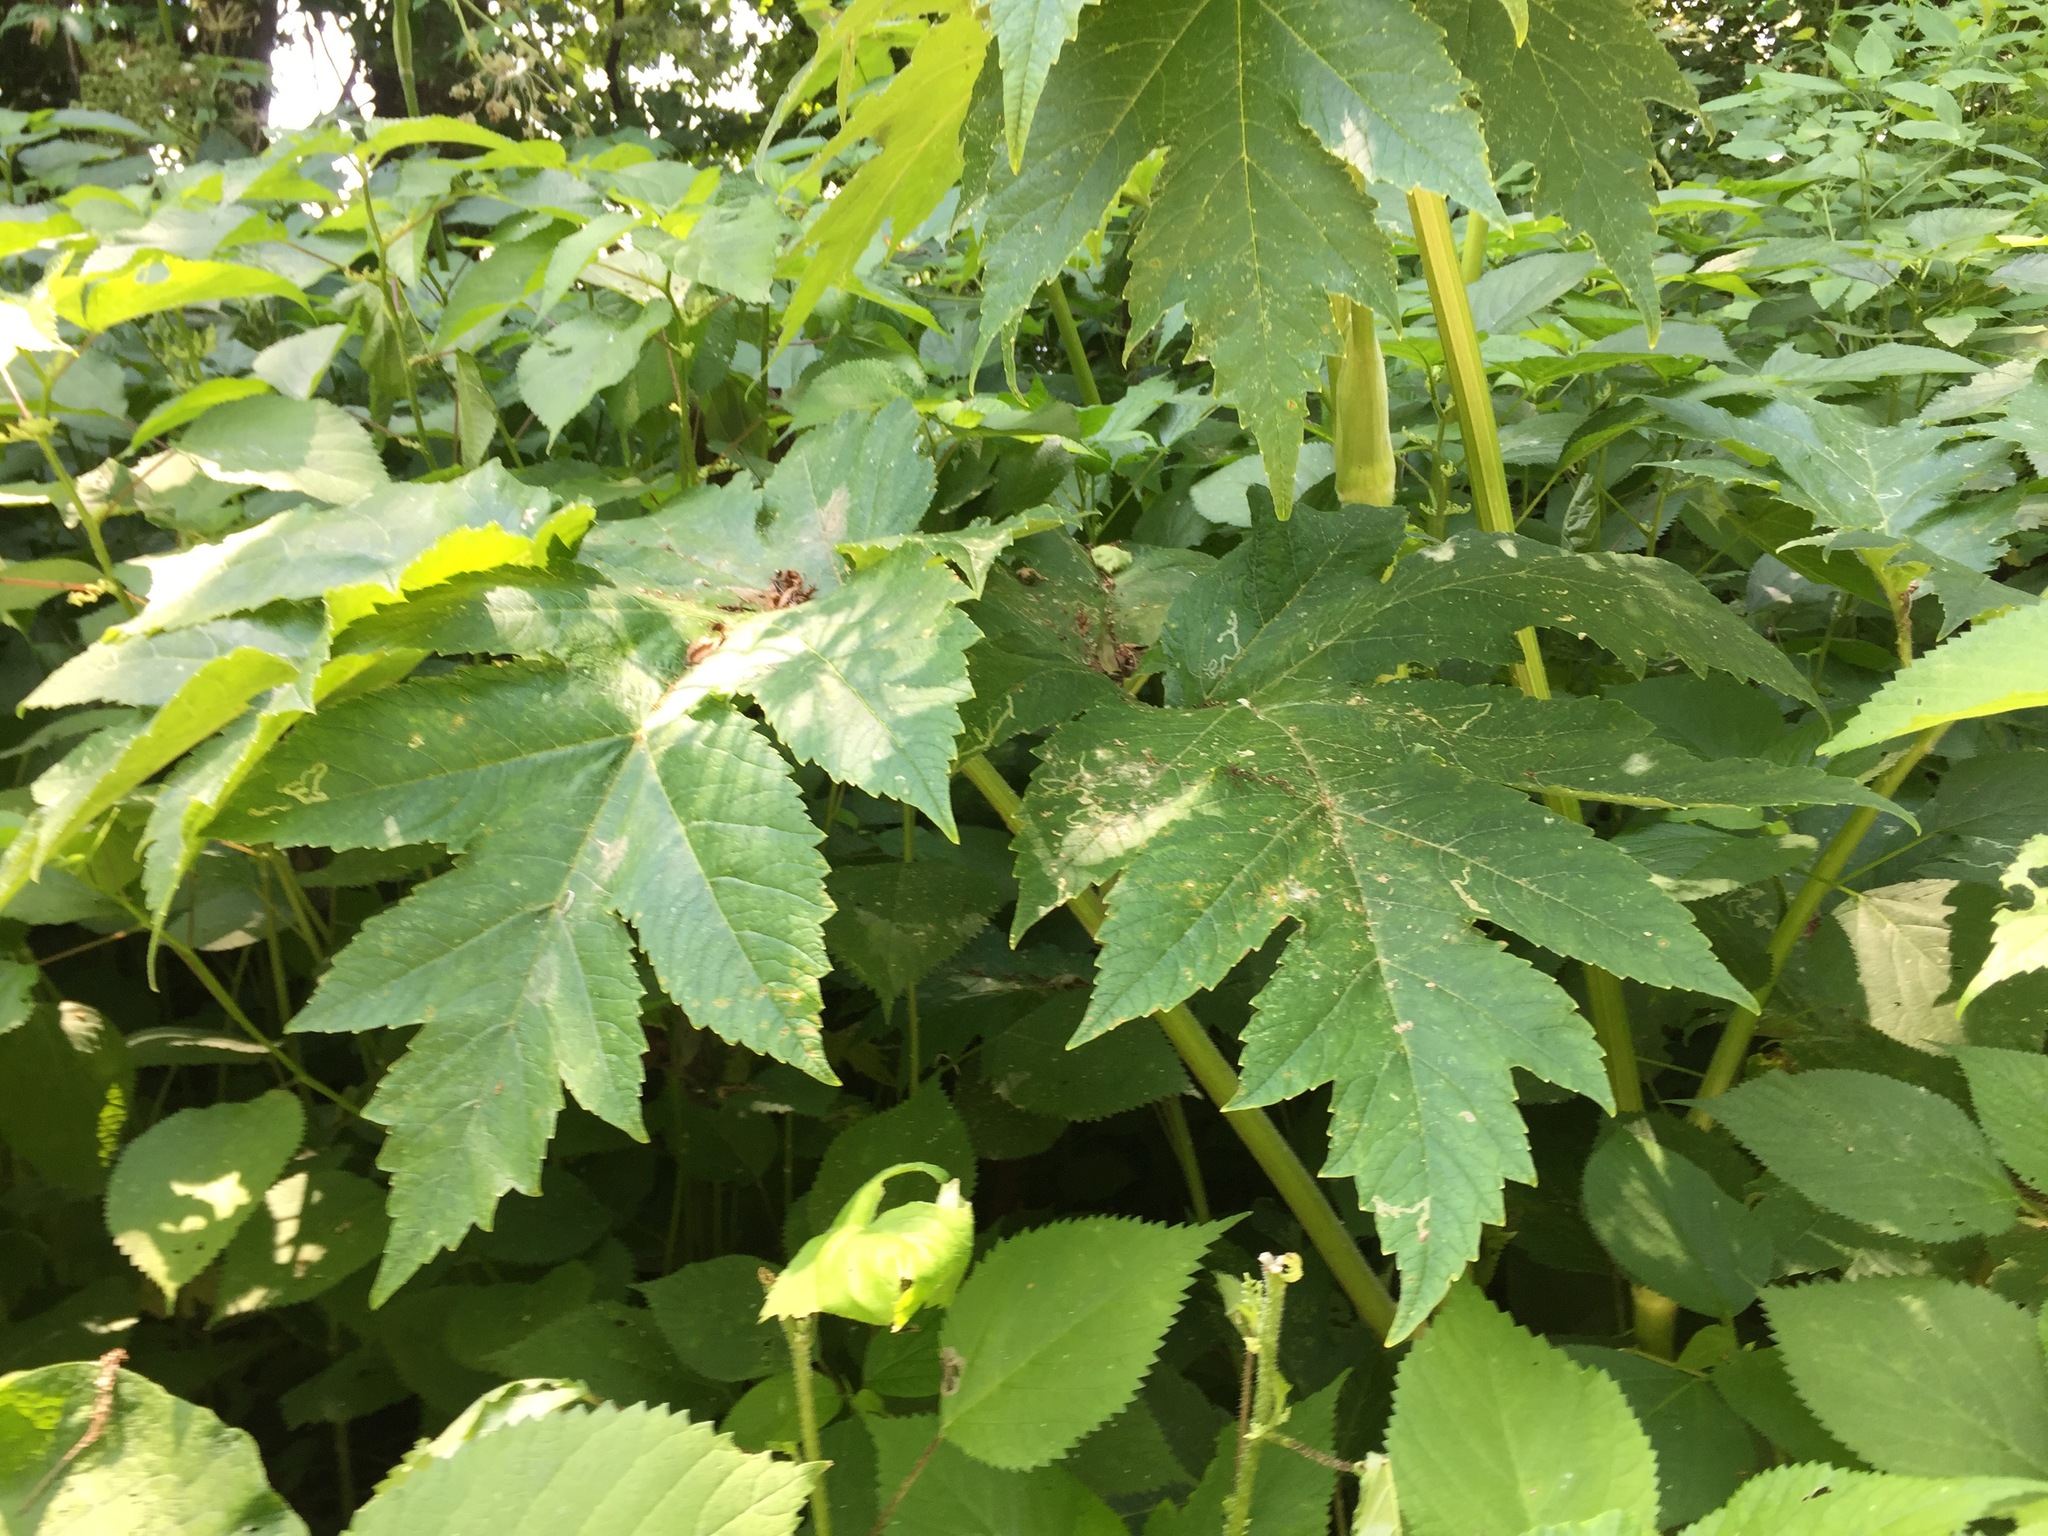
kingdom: Plantae
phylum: Tracheophyta
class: Magnoliopsida
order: Apiales
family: Apiaceae
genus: Heracleum
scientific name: Heracleum maximum
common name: American cow parsnip
